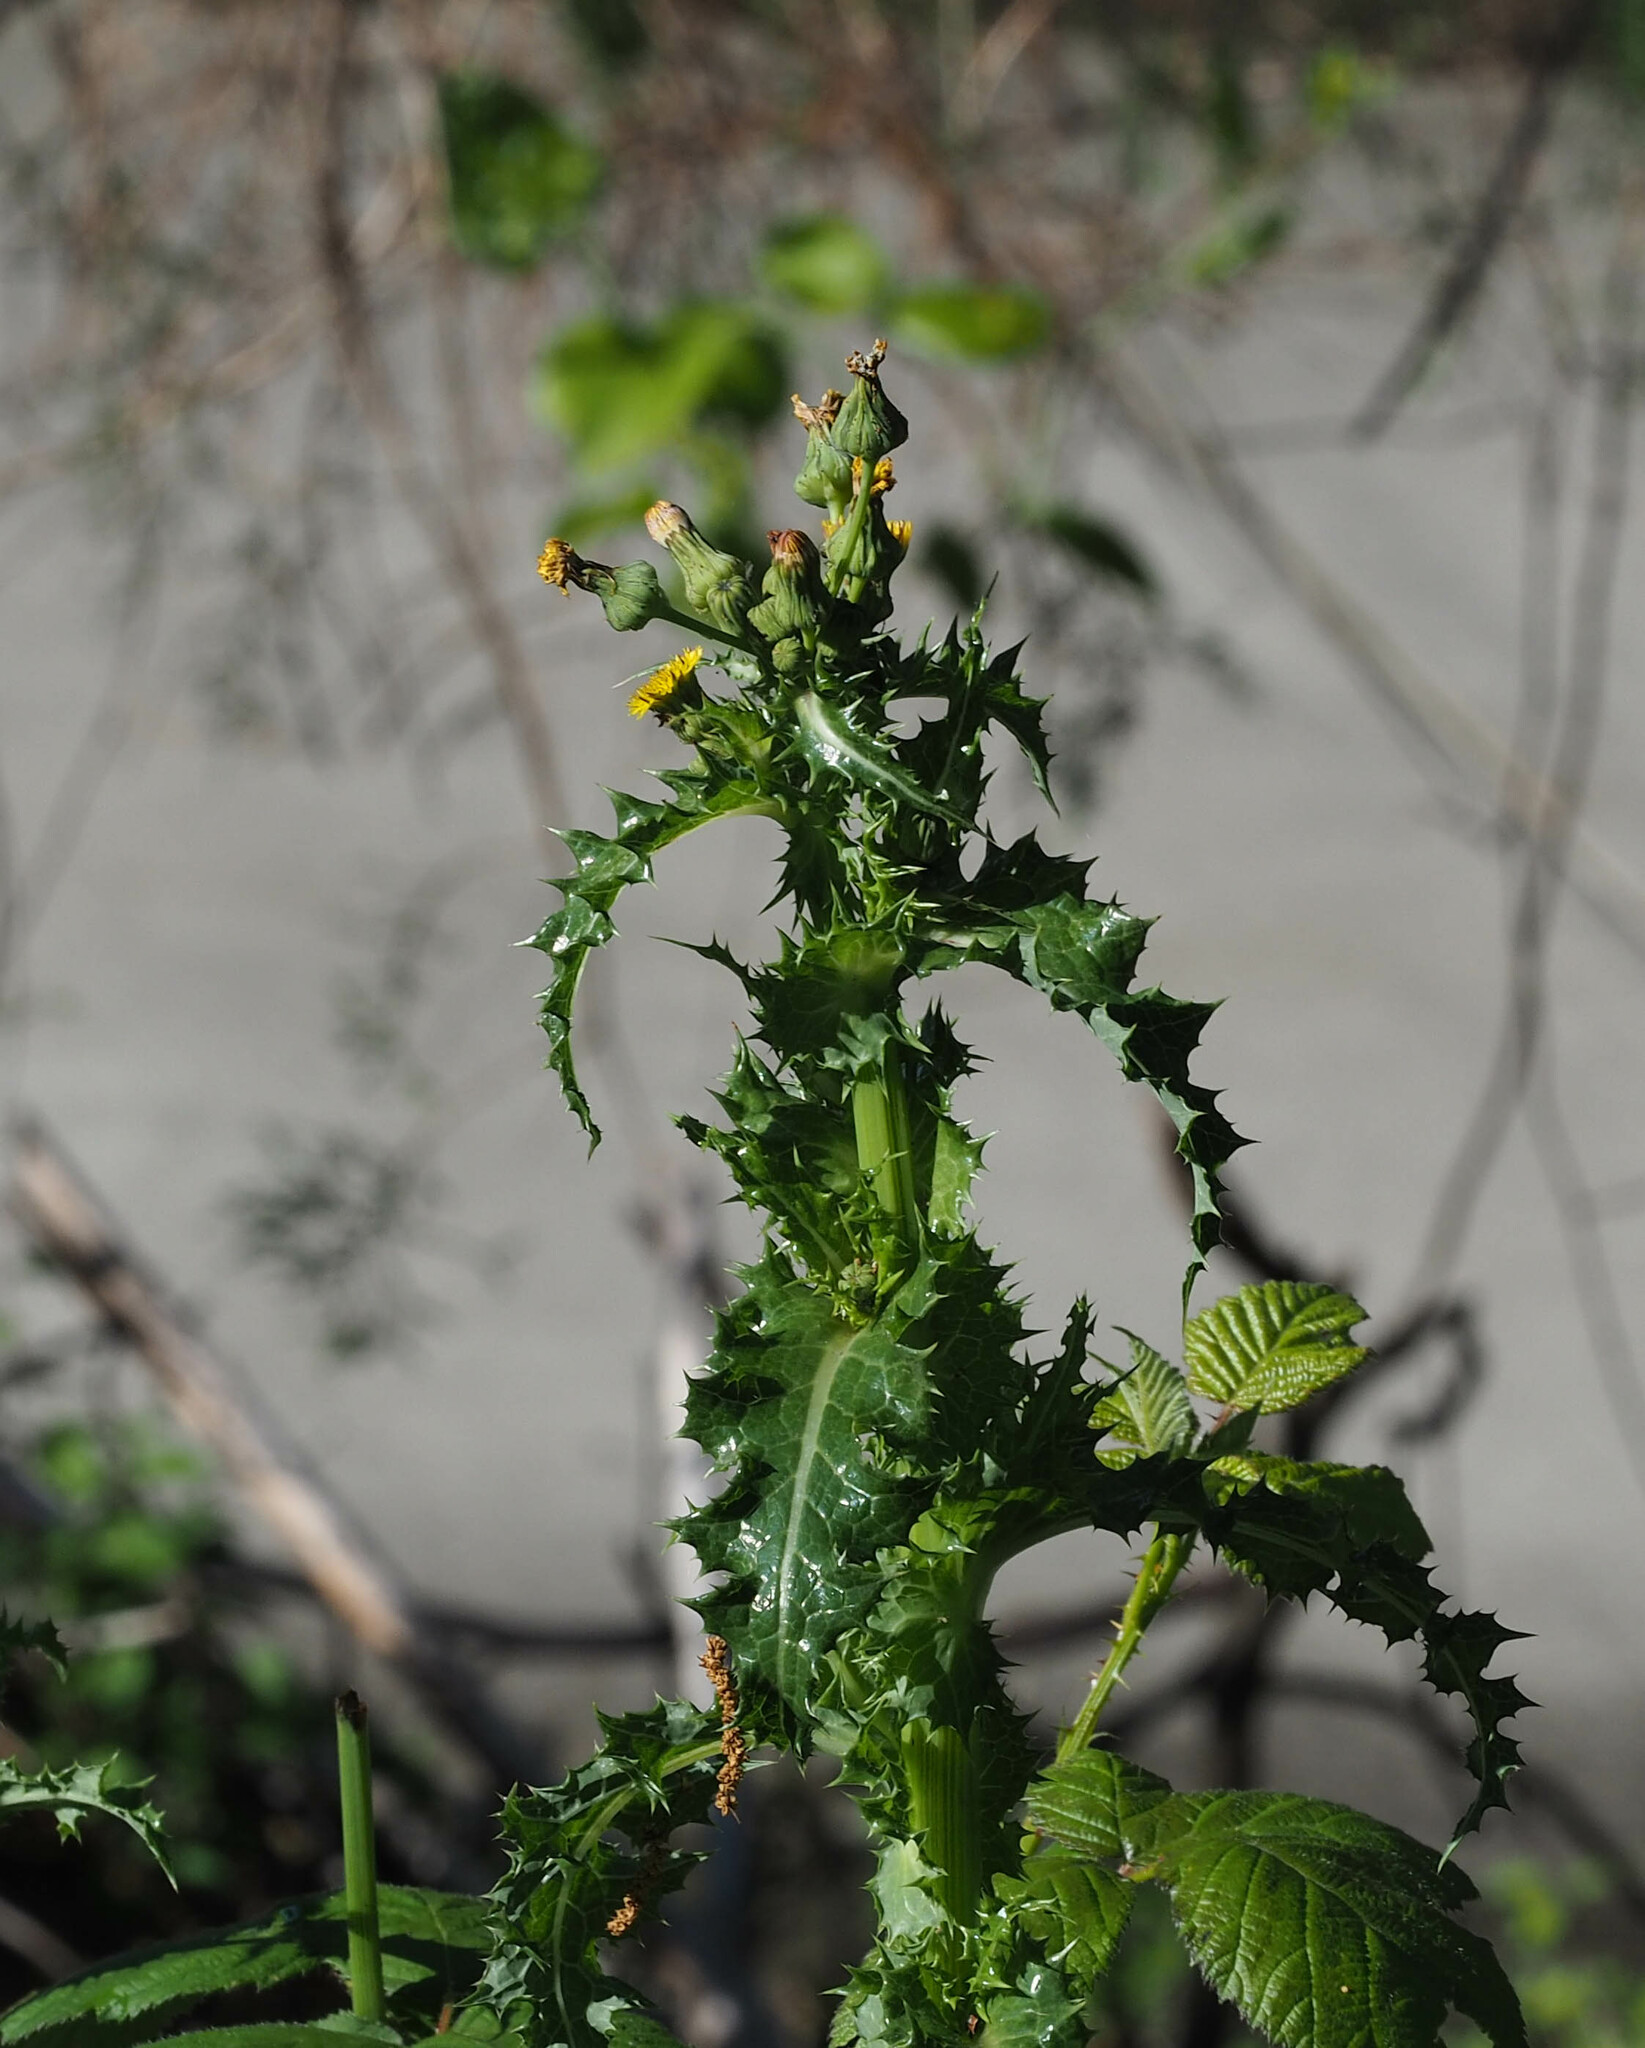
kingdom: Plantae
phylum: Tracheophyta
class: Magnoliopsida
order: Asterales
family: Asteraceae
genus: Sonchus
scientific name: Sonchus asper
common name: Prickly sow-thistle
